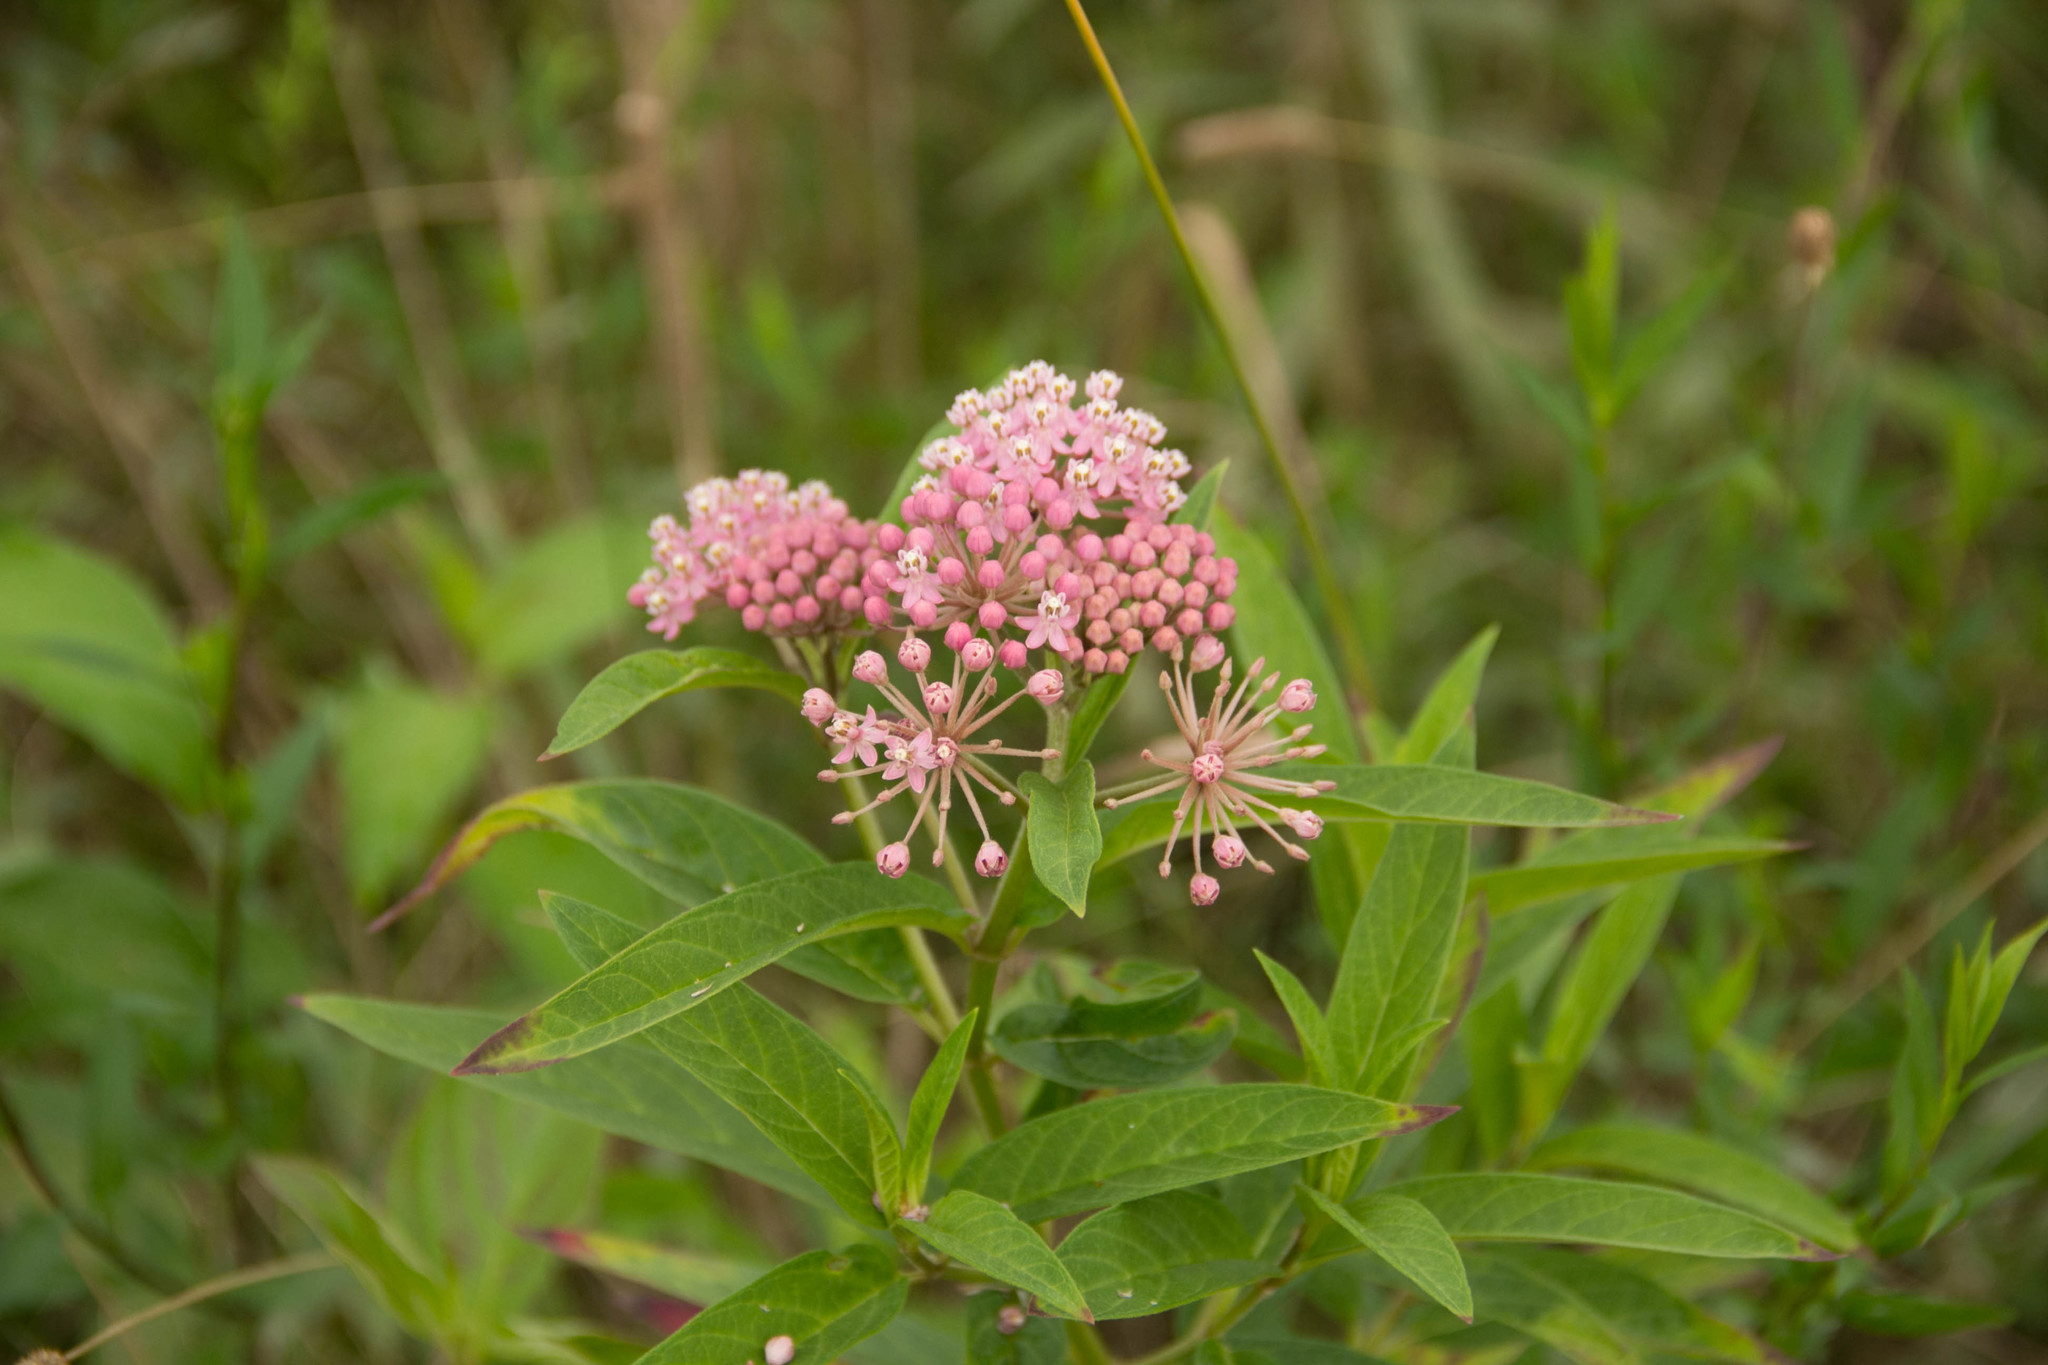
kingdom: Plantae
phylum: Tracheophyta
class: Magnoliopsida
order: Gentianales
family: Apocynaceae
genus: Asclepias
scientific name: Asclepias incarnata
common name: Swamp milkweed
